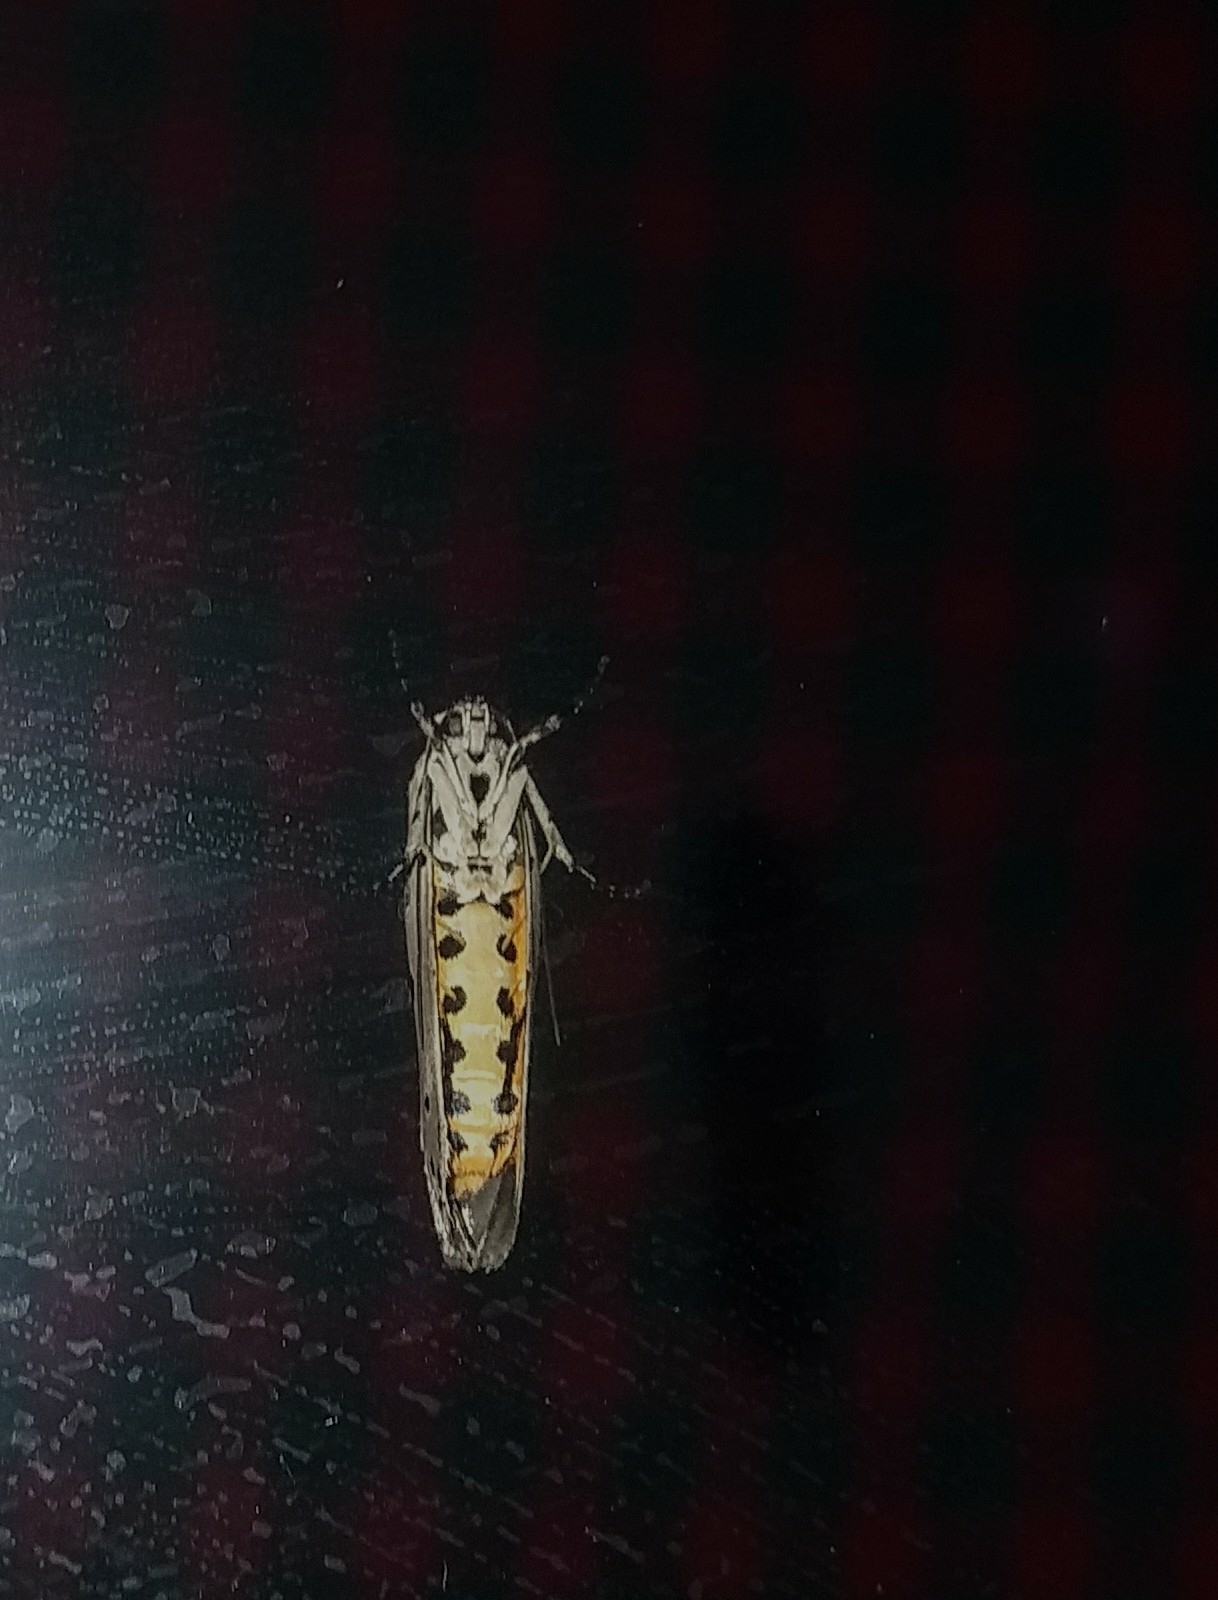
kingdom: Animalia
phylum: Arthropoda
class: Insecta
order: Lepidoptera
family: Ethmiidae
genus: Ethmia
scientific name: Ethmia nigroapicella
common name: Kou leaf worm
